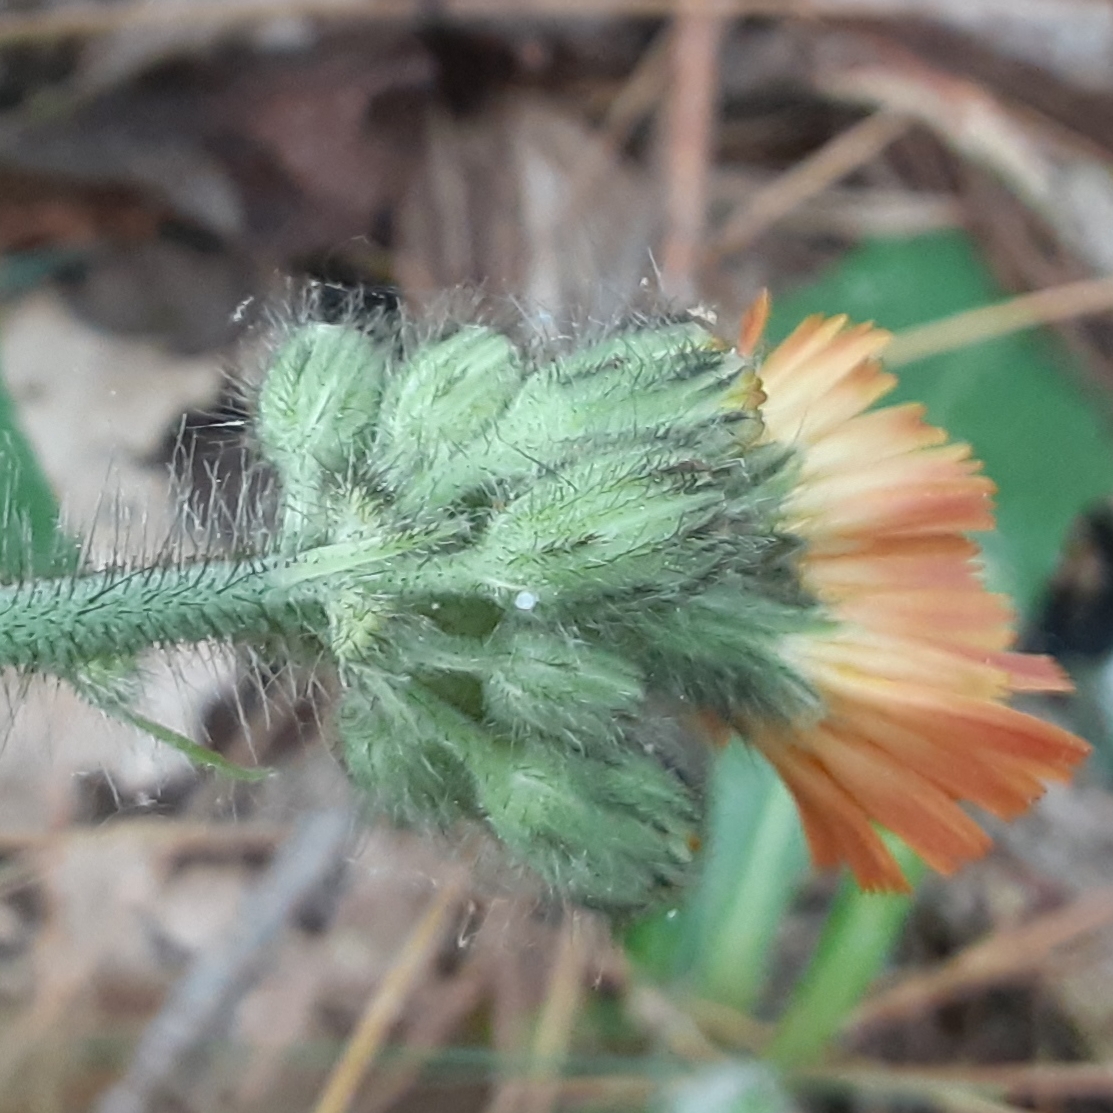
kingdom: Plantae
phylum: Tracheophyta
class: Magnoliopsida
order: Asterales
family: Asteraceae
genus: Pilosella
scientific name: Pilosella aurantiaca
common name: Fox-and-cubs
